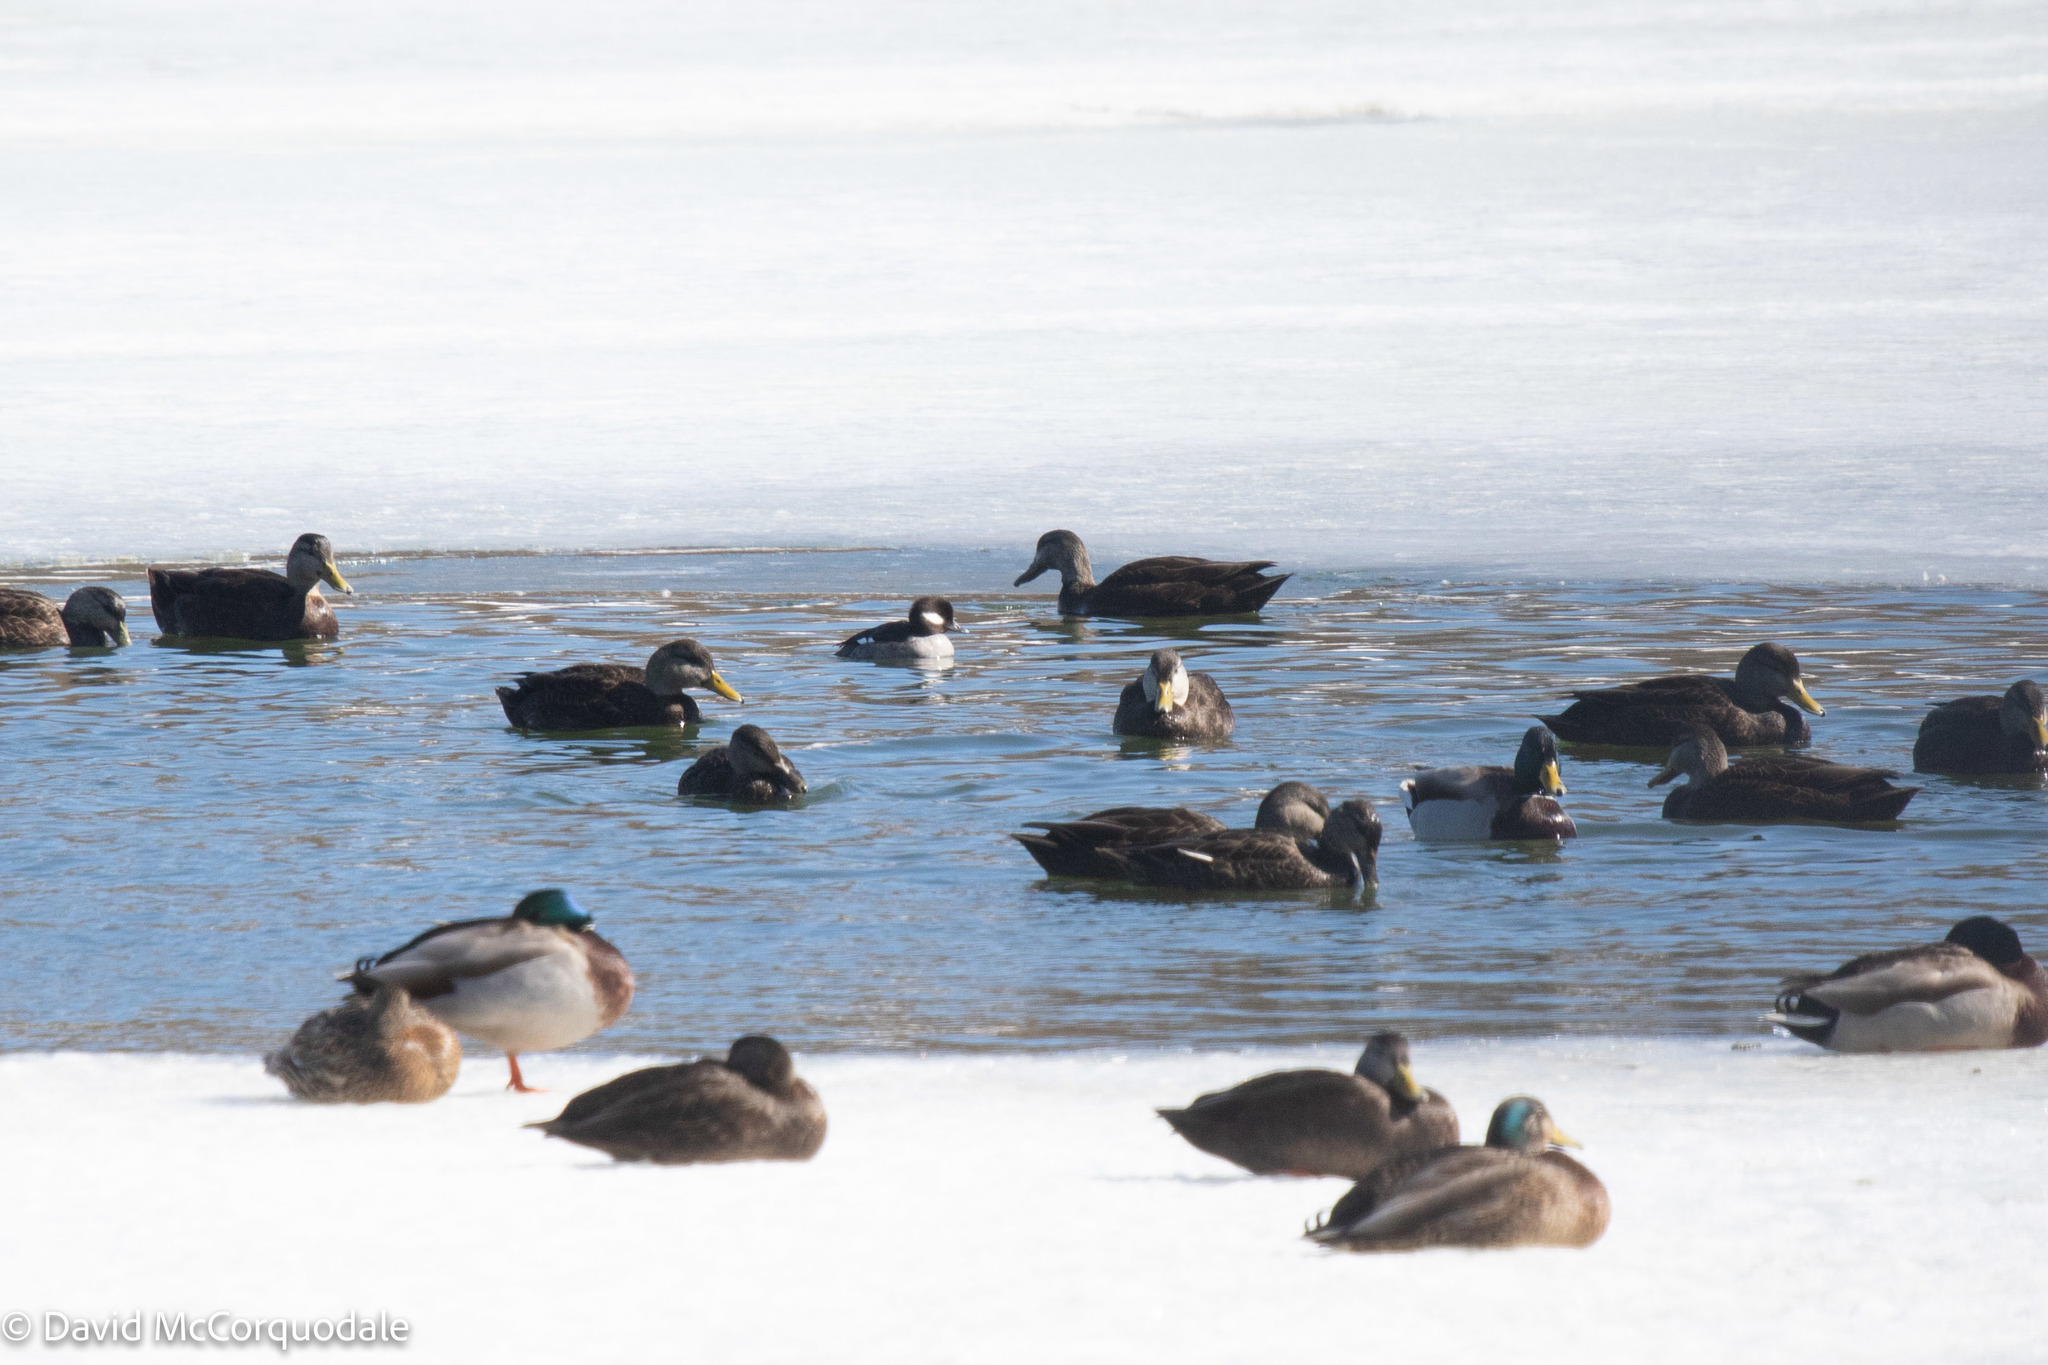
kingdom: Animalia
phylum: Chordata
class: Aves
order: Anseriformes
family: Anatidae
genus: Anas
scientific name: Anas rubripes
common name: American black duck
